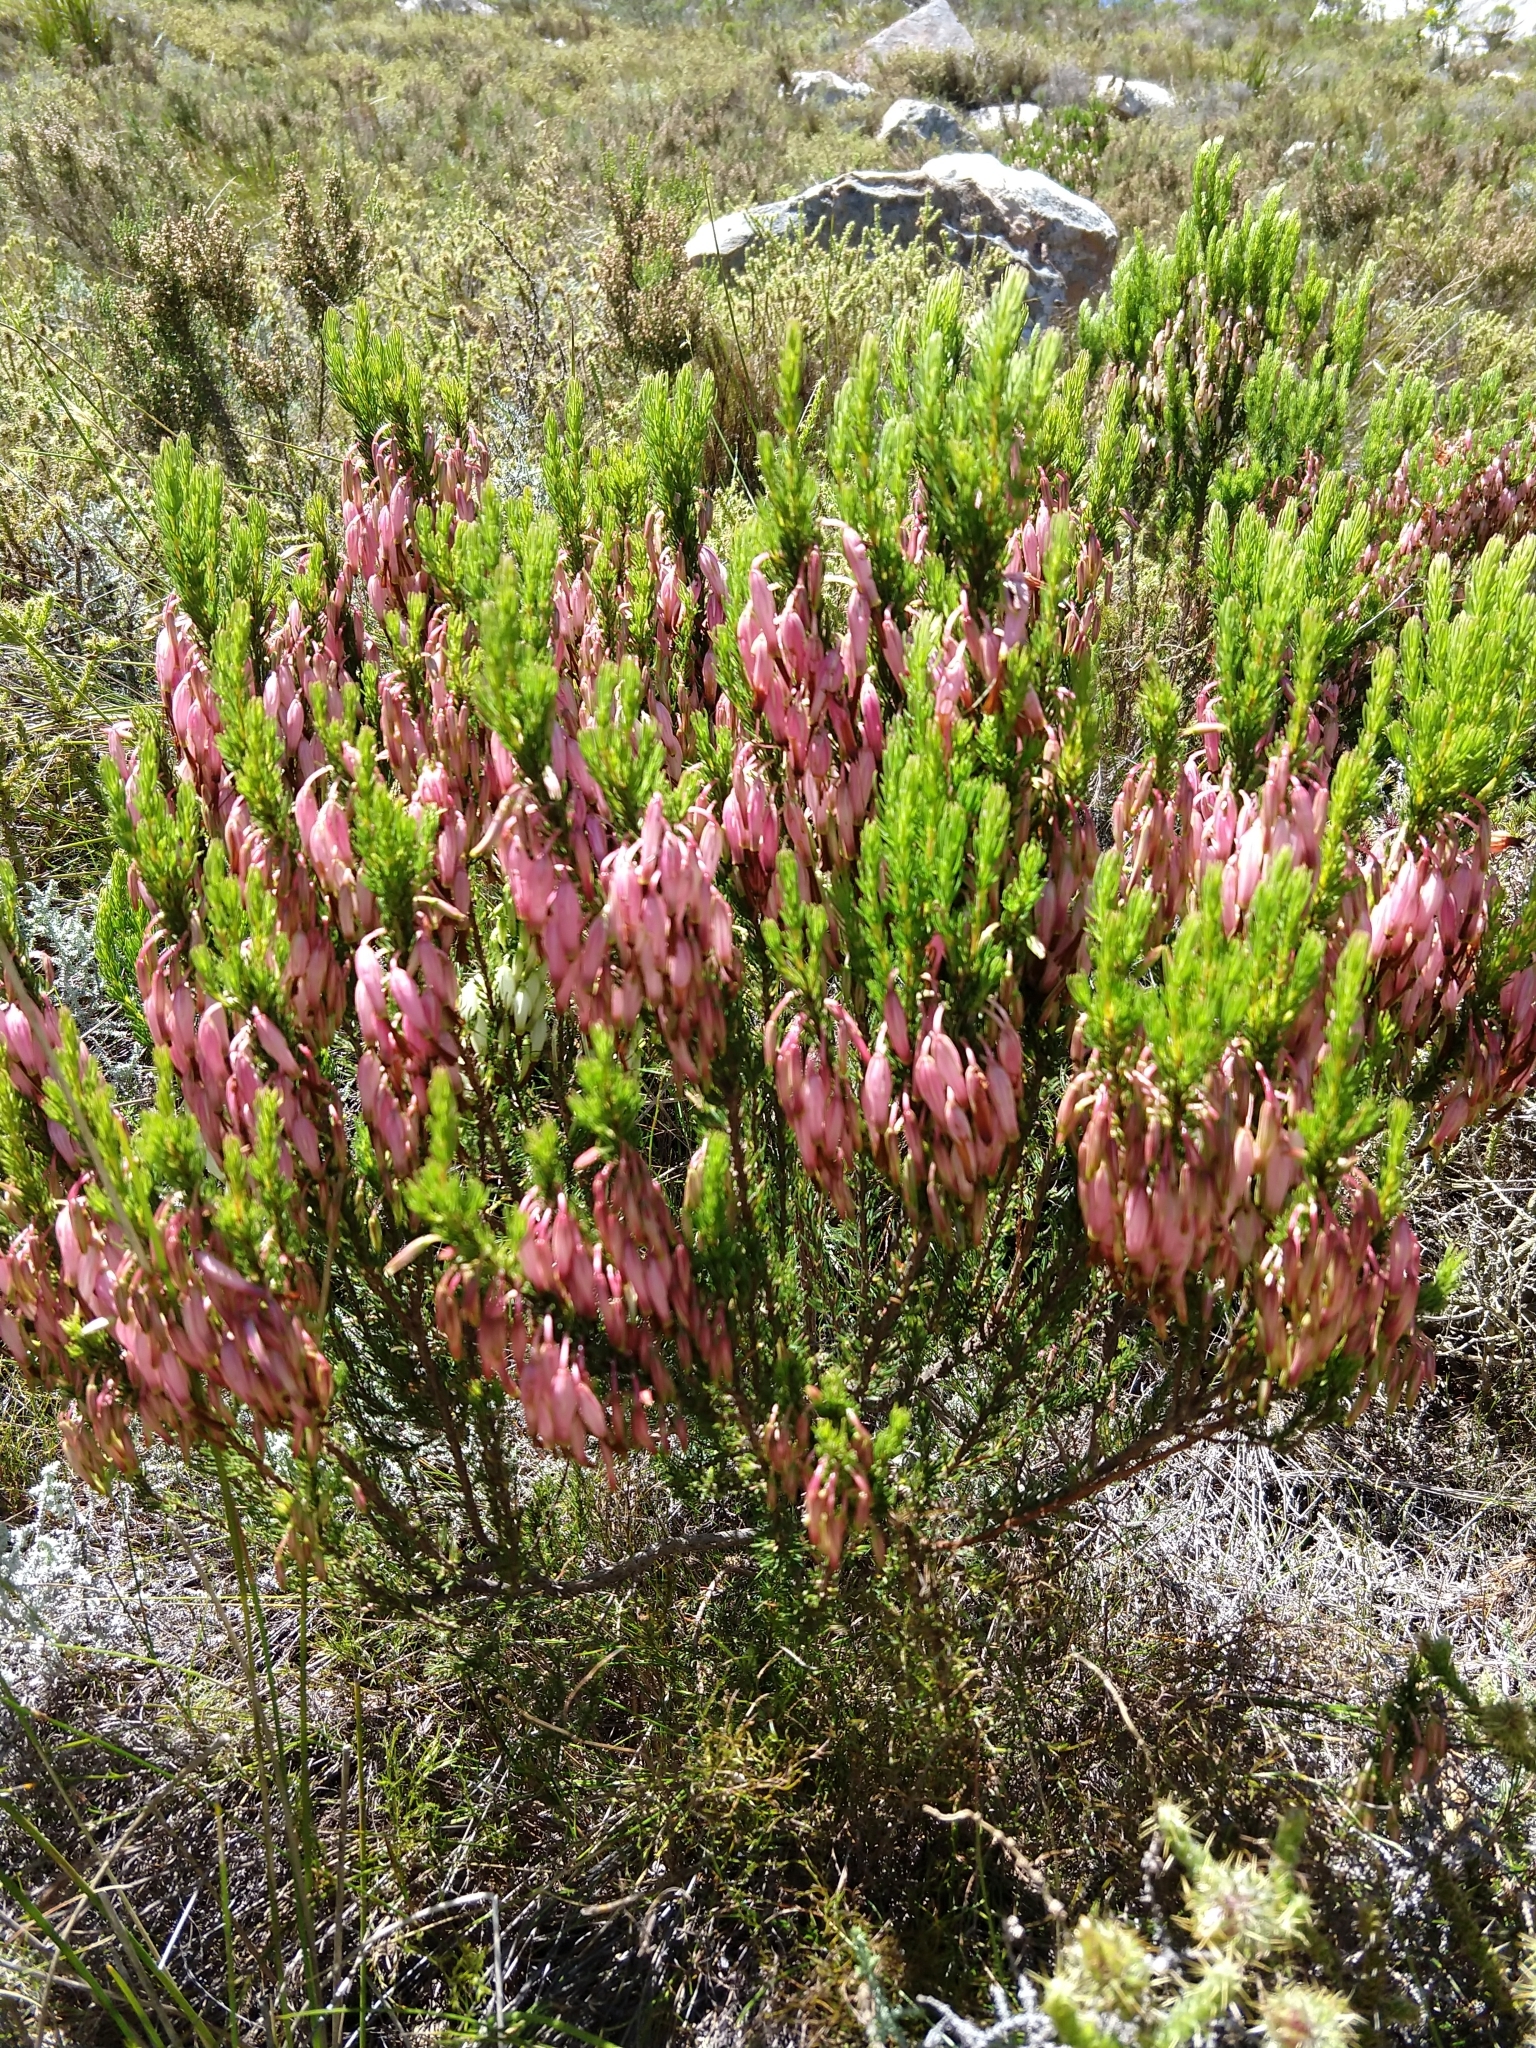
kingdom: Plantae
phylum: Tracheophyta
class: Magnoliopsida
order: Ericales
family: Ericaceae
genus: Erica
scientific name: Erica plukenetii
